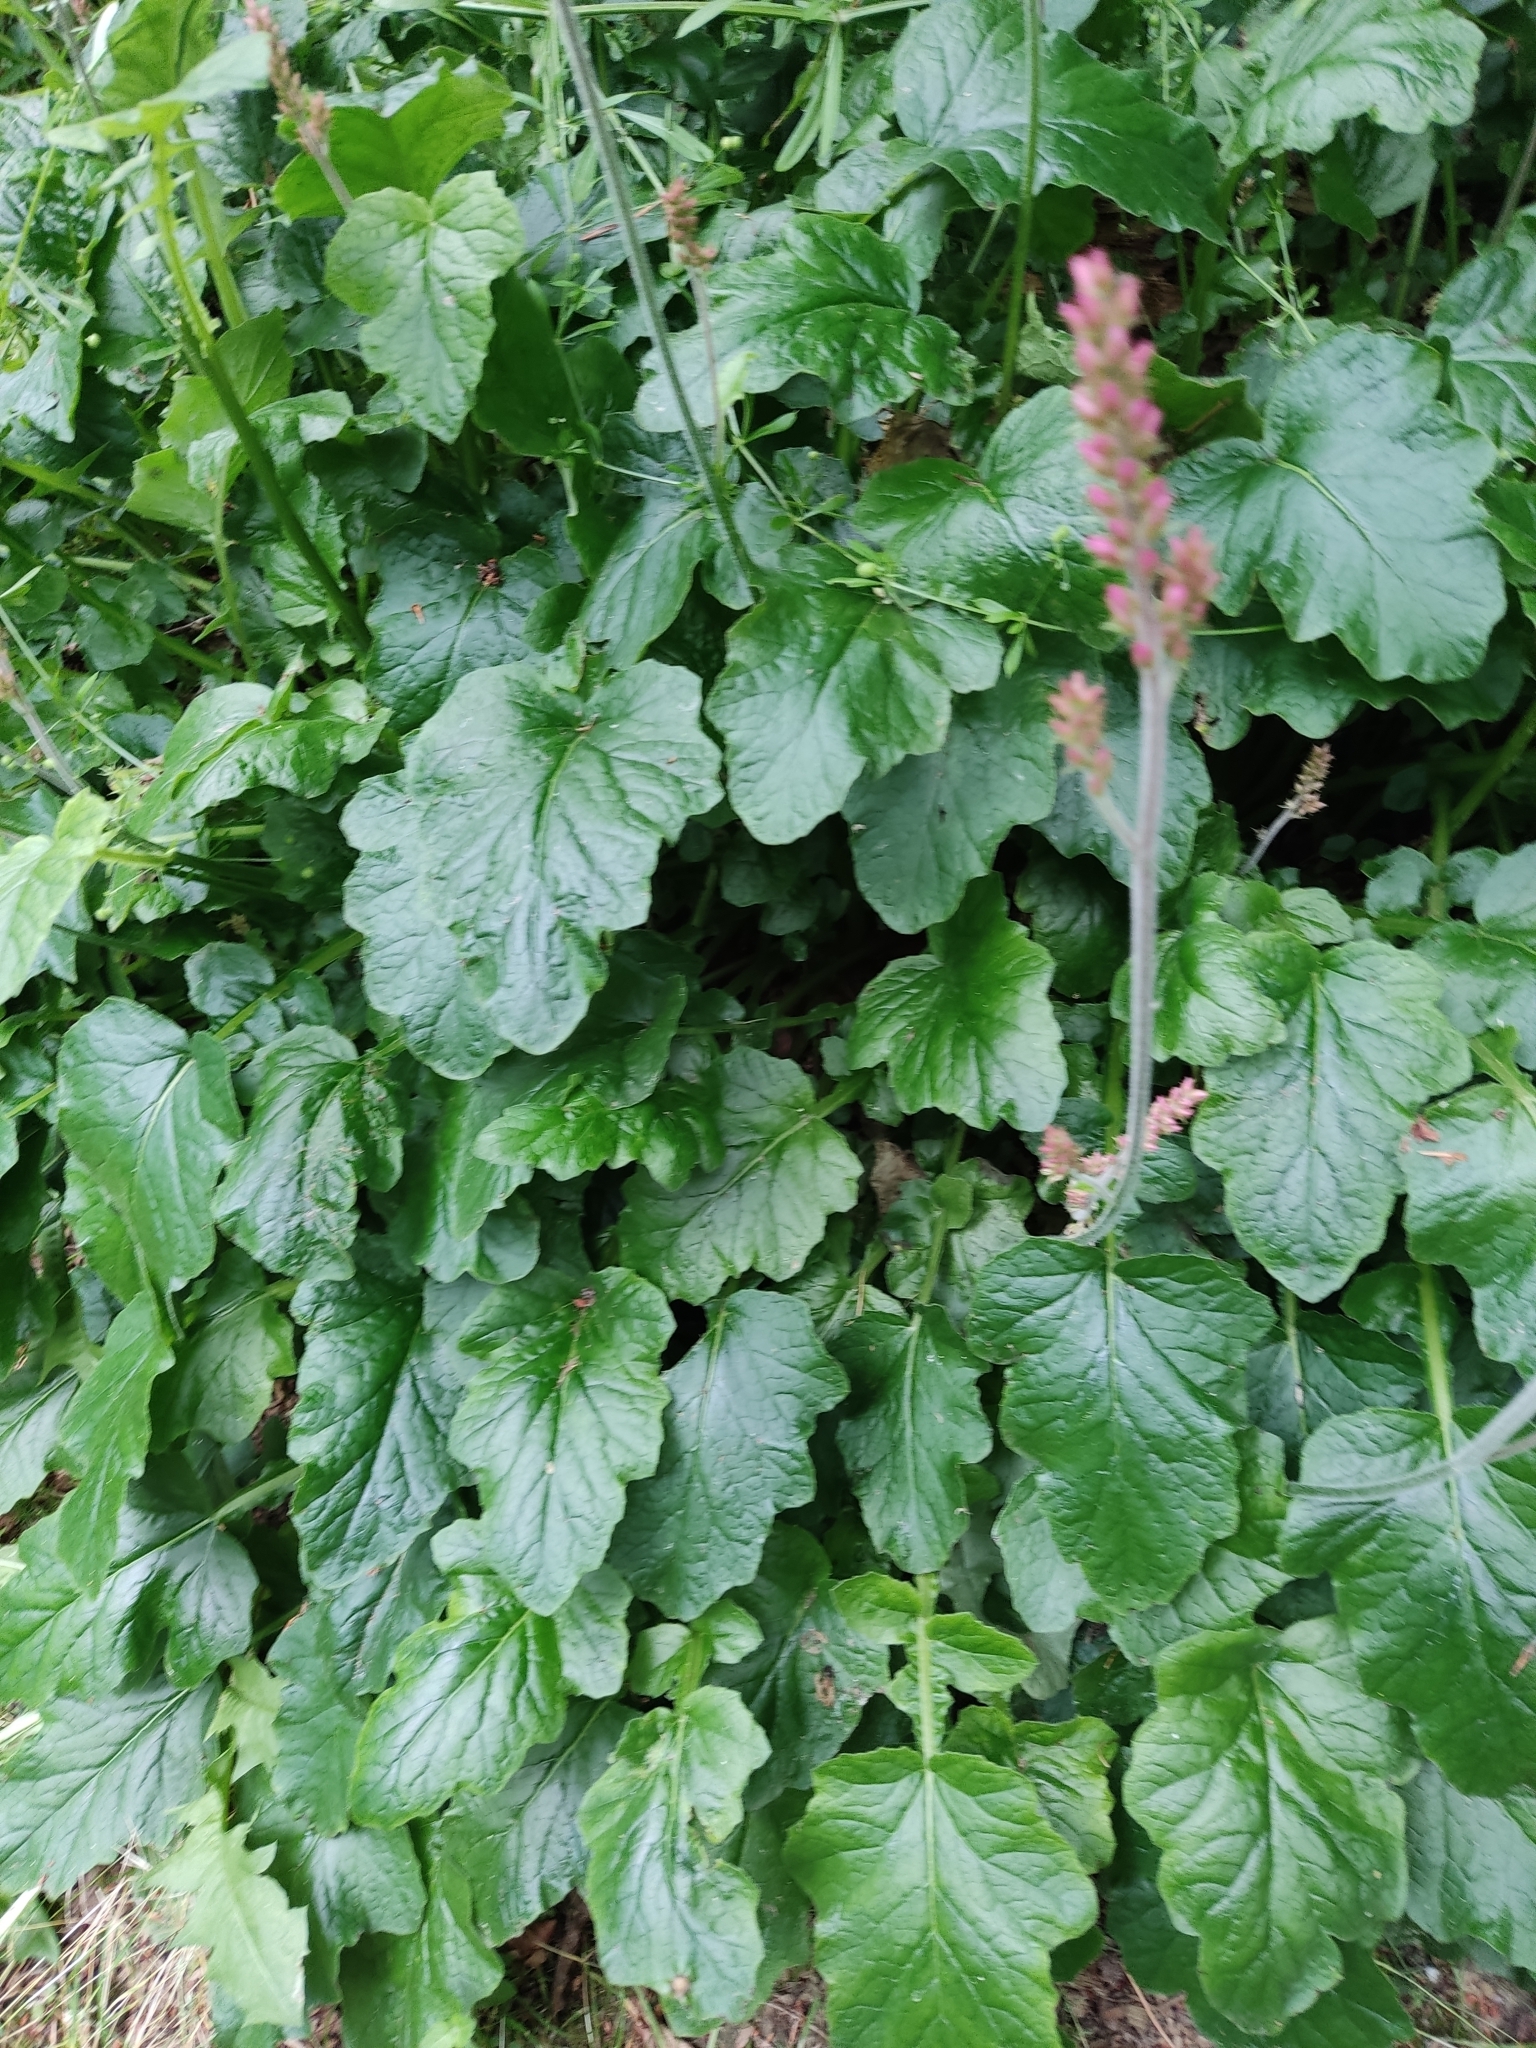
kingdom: Plantae
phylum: Tracheophyta
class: Magnoliopsida
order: Geraniales
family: Francoaceae
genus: Francoa
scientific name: Francoa appendiculata
